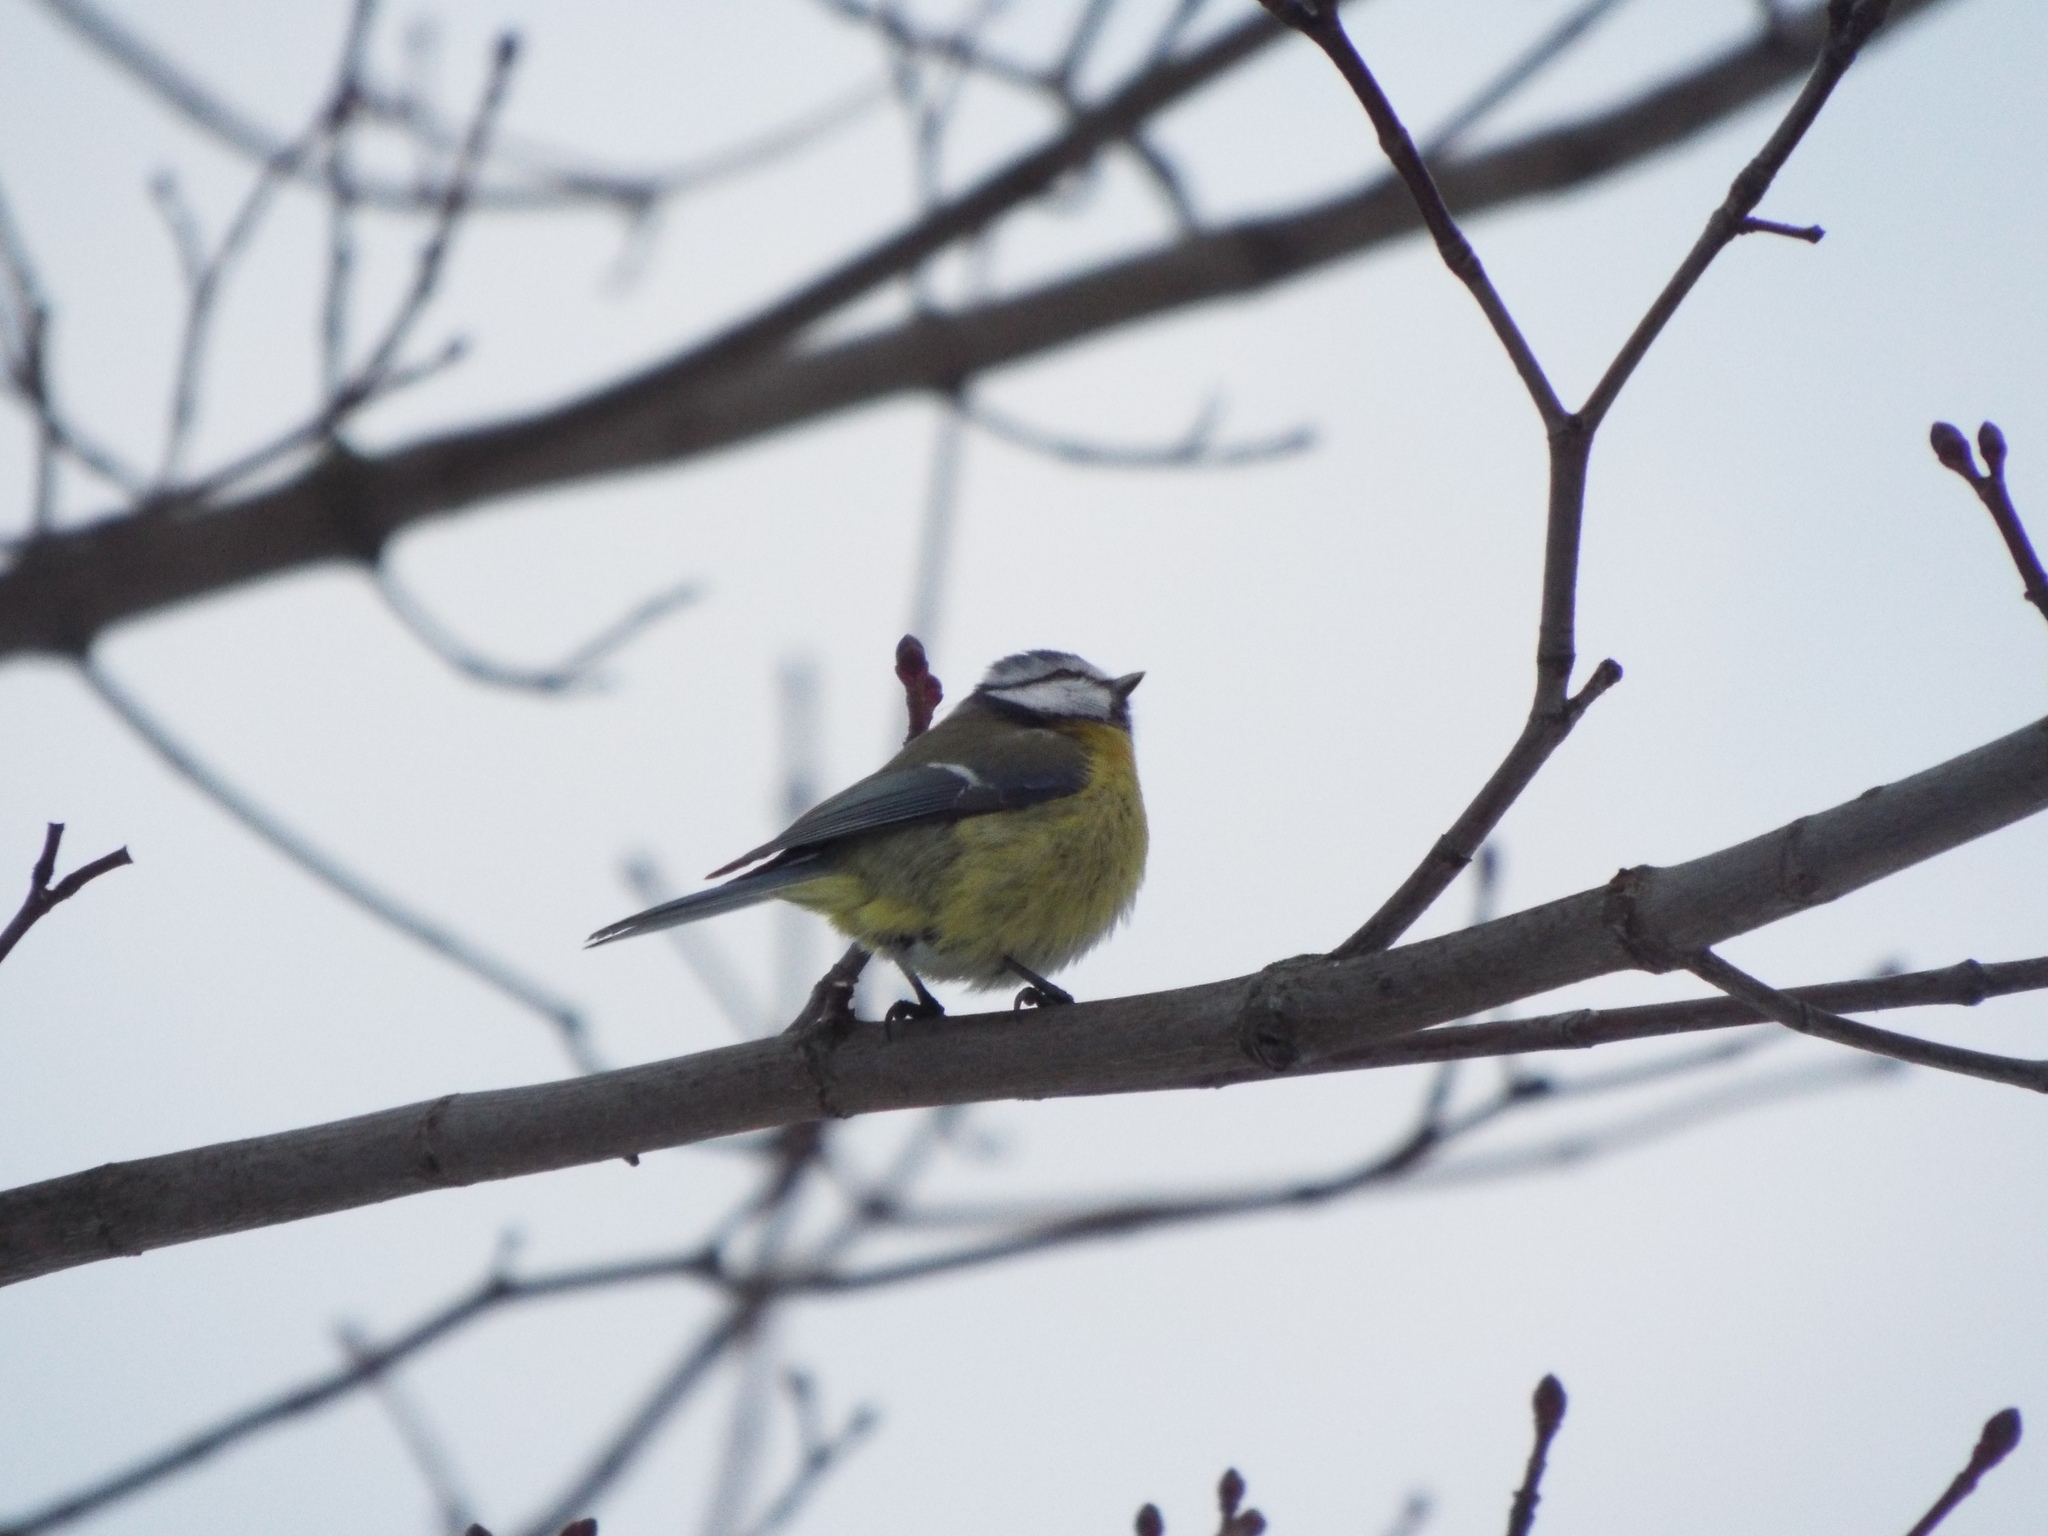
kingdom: Animalia
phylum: Chordata
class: Aves
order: Passeriformes
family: Paridae
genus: Cyanistes
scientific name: Cyanistes caeruleus
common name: Eurasian blue tit
